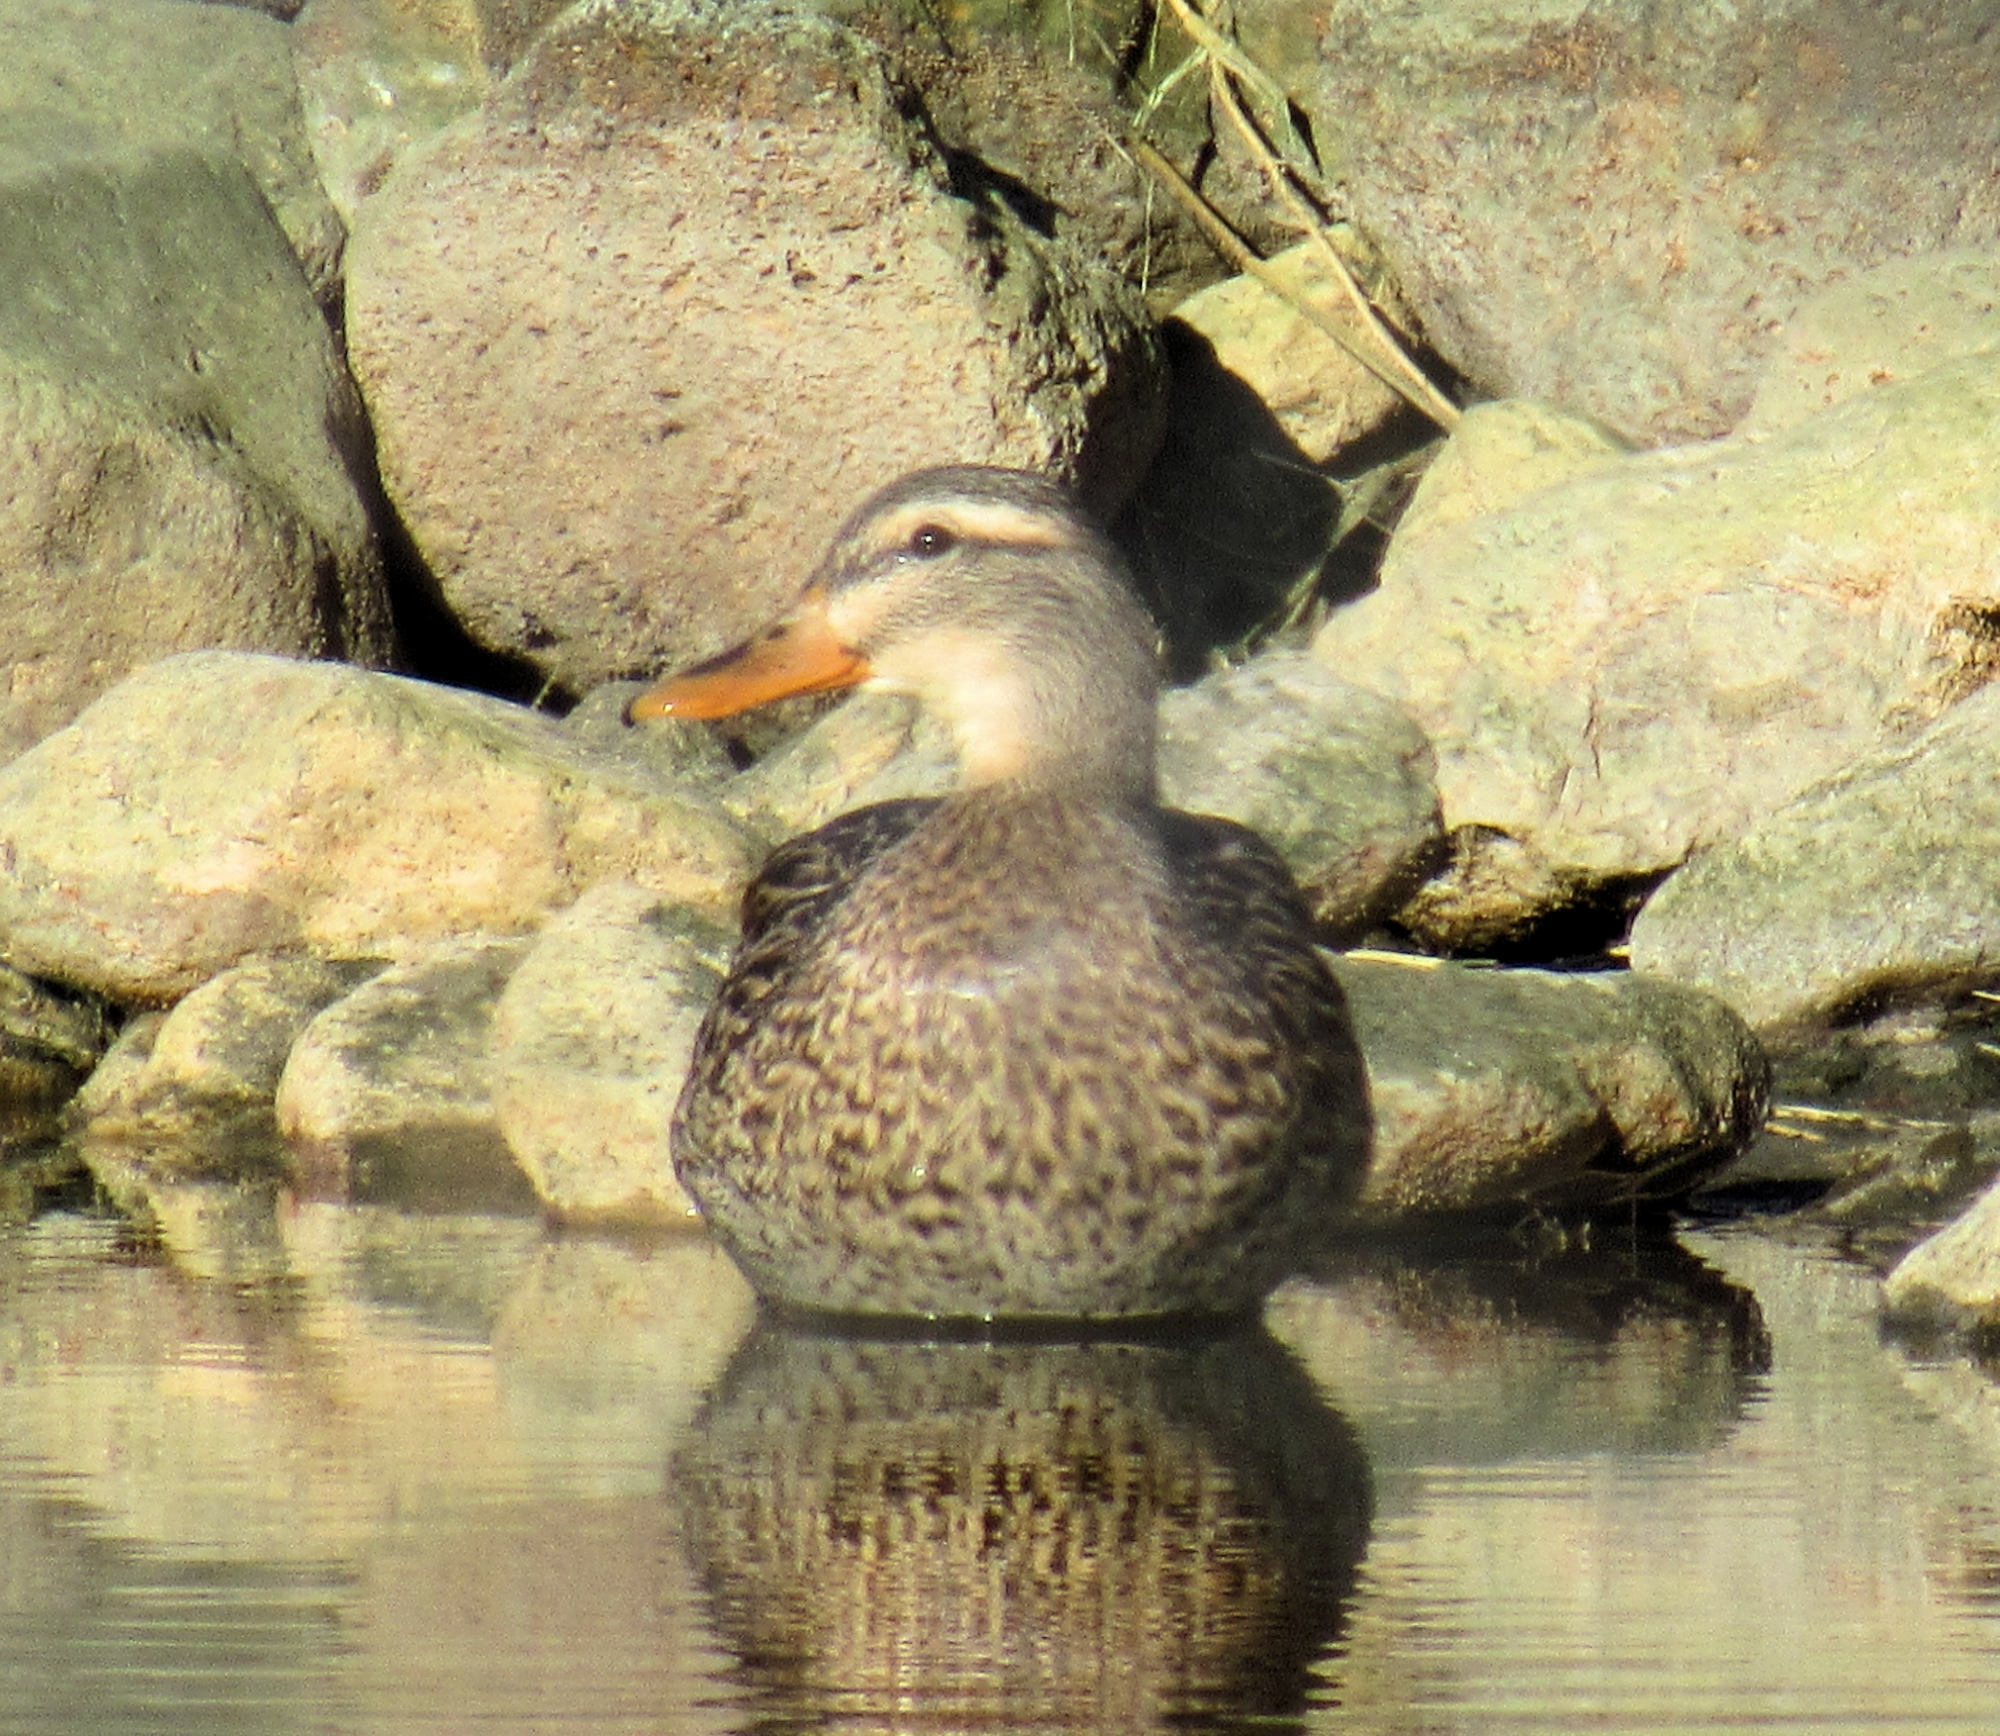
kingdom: Animalia
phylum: Chordata
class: Aves
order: Anseriformes
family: Anatidae
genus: Anas
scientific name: Anas platyrhynchos
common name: Mallard
